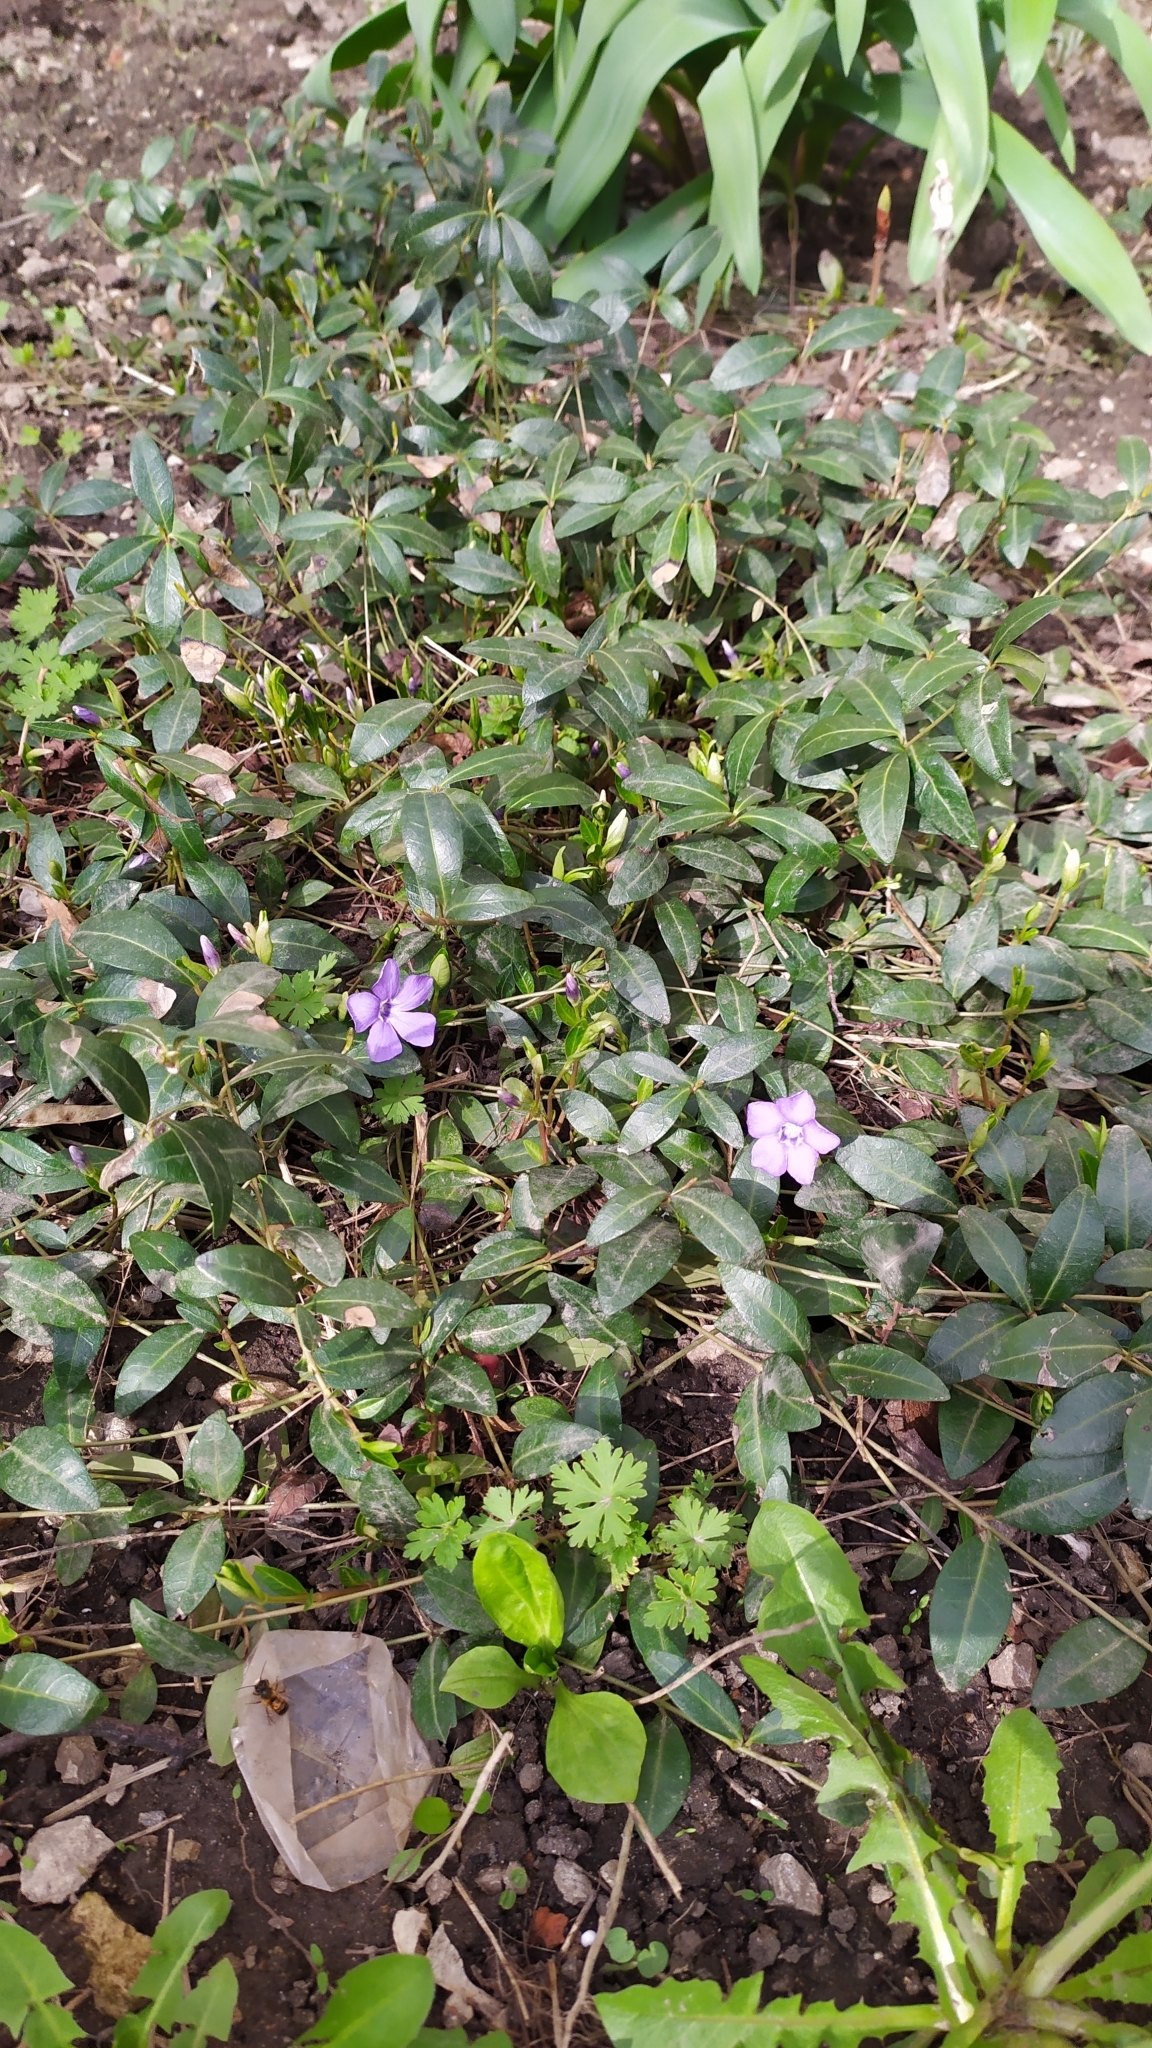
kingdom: Plantae
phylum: Tracheophyta
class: Magnoliopsida
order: Gentianales
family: Apocynaceae
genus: Vinca
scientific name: Vinca minor
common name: Lesser periwinkle
